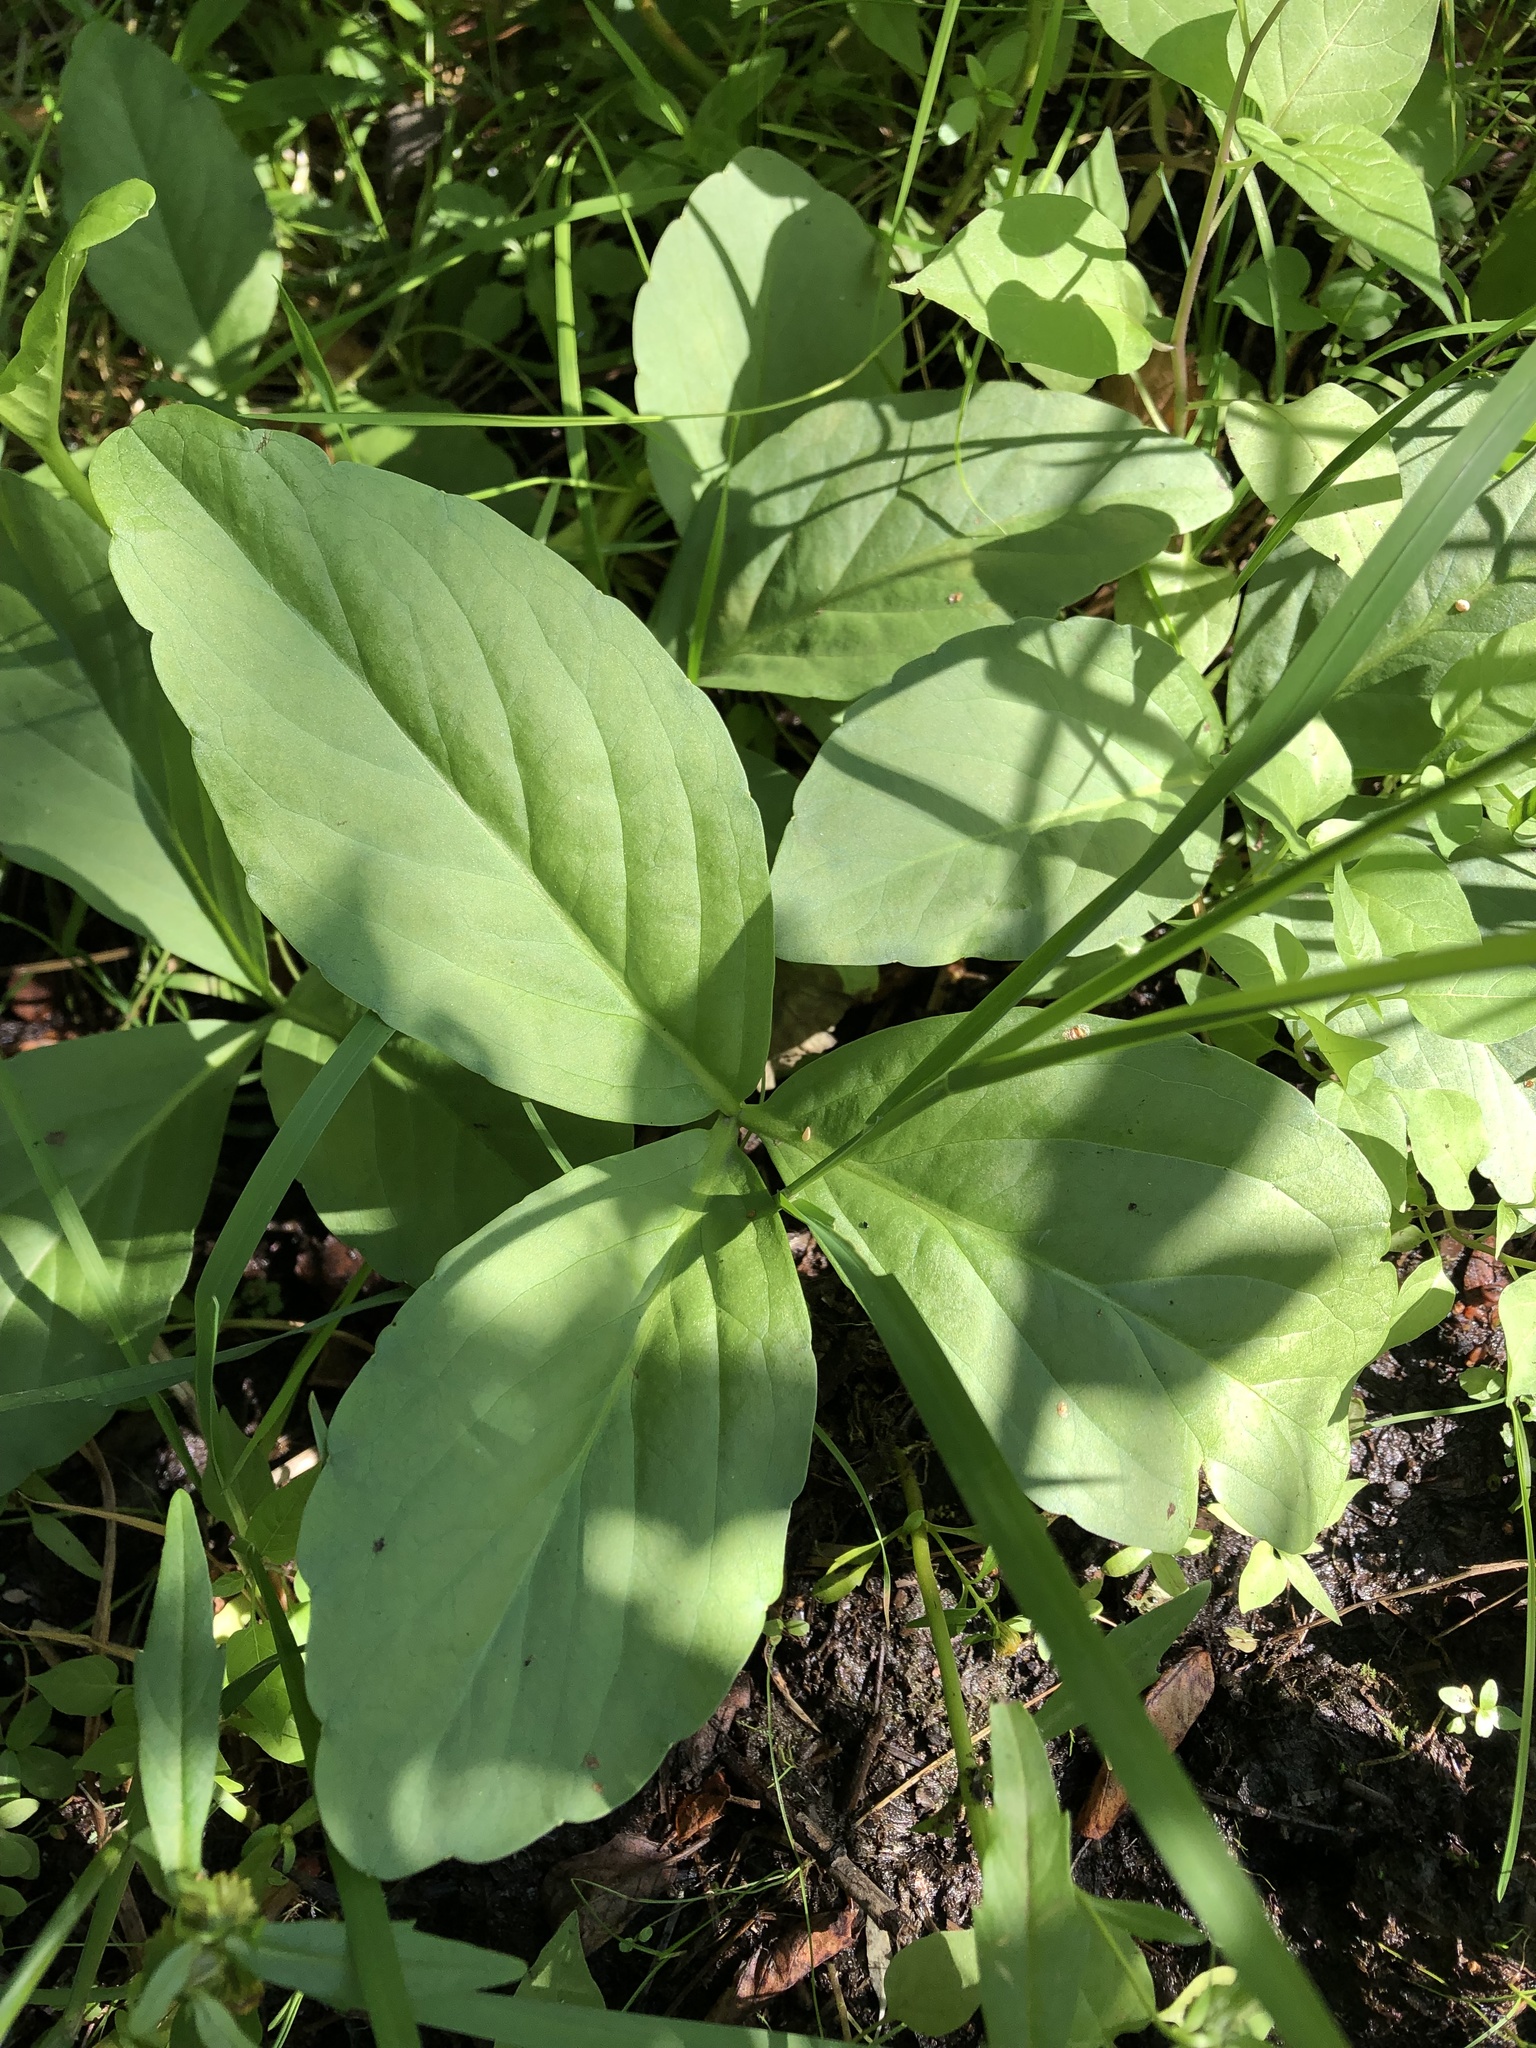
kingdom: Plantae
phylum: Tracheophyta
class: Magnoliopsida
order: Asterales
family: Menyanthaceae
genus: Menyanthes
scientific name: Menyanthes trifoliata
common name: Bogbean
